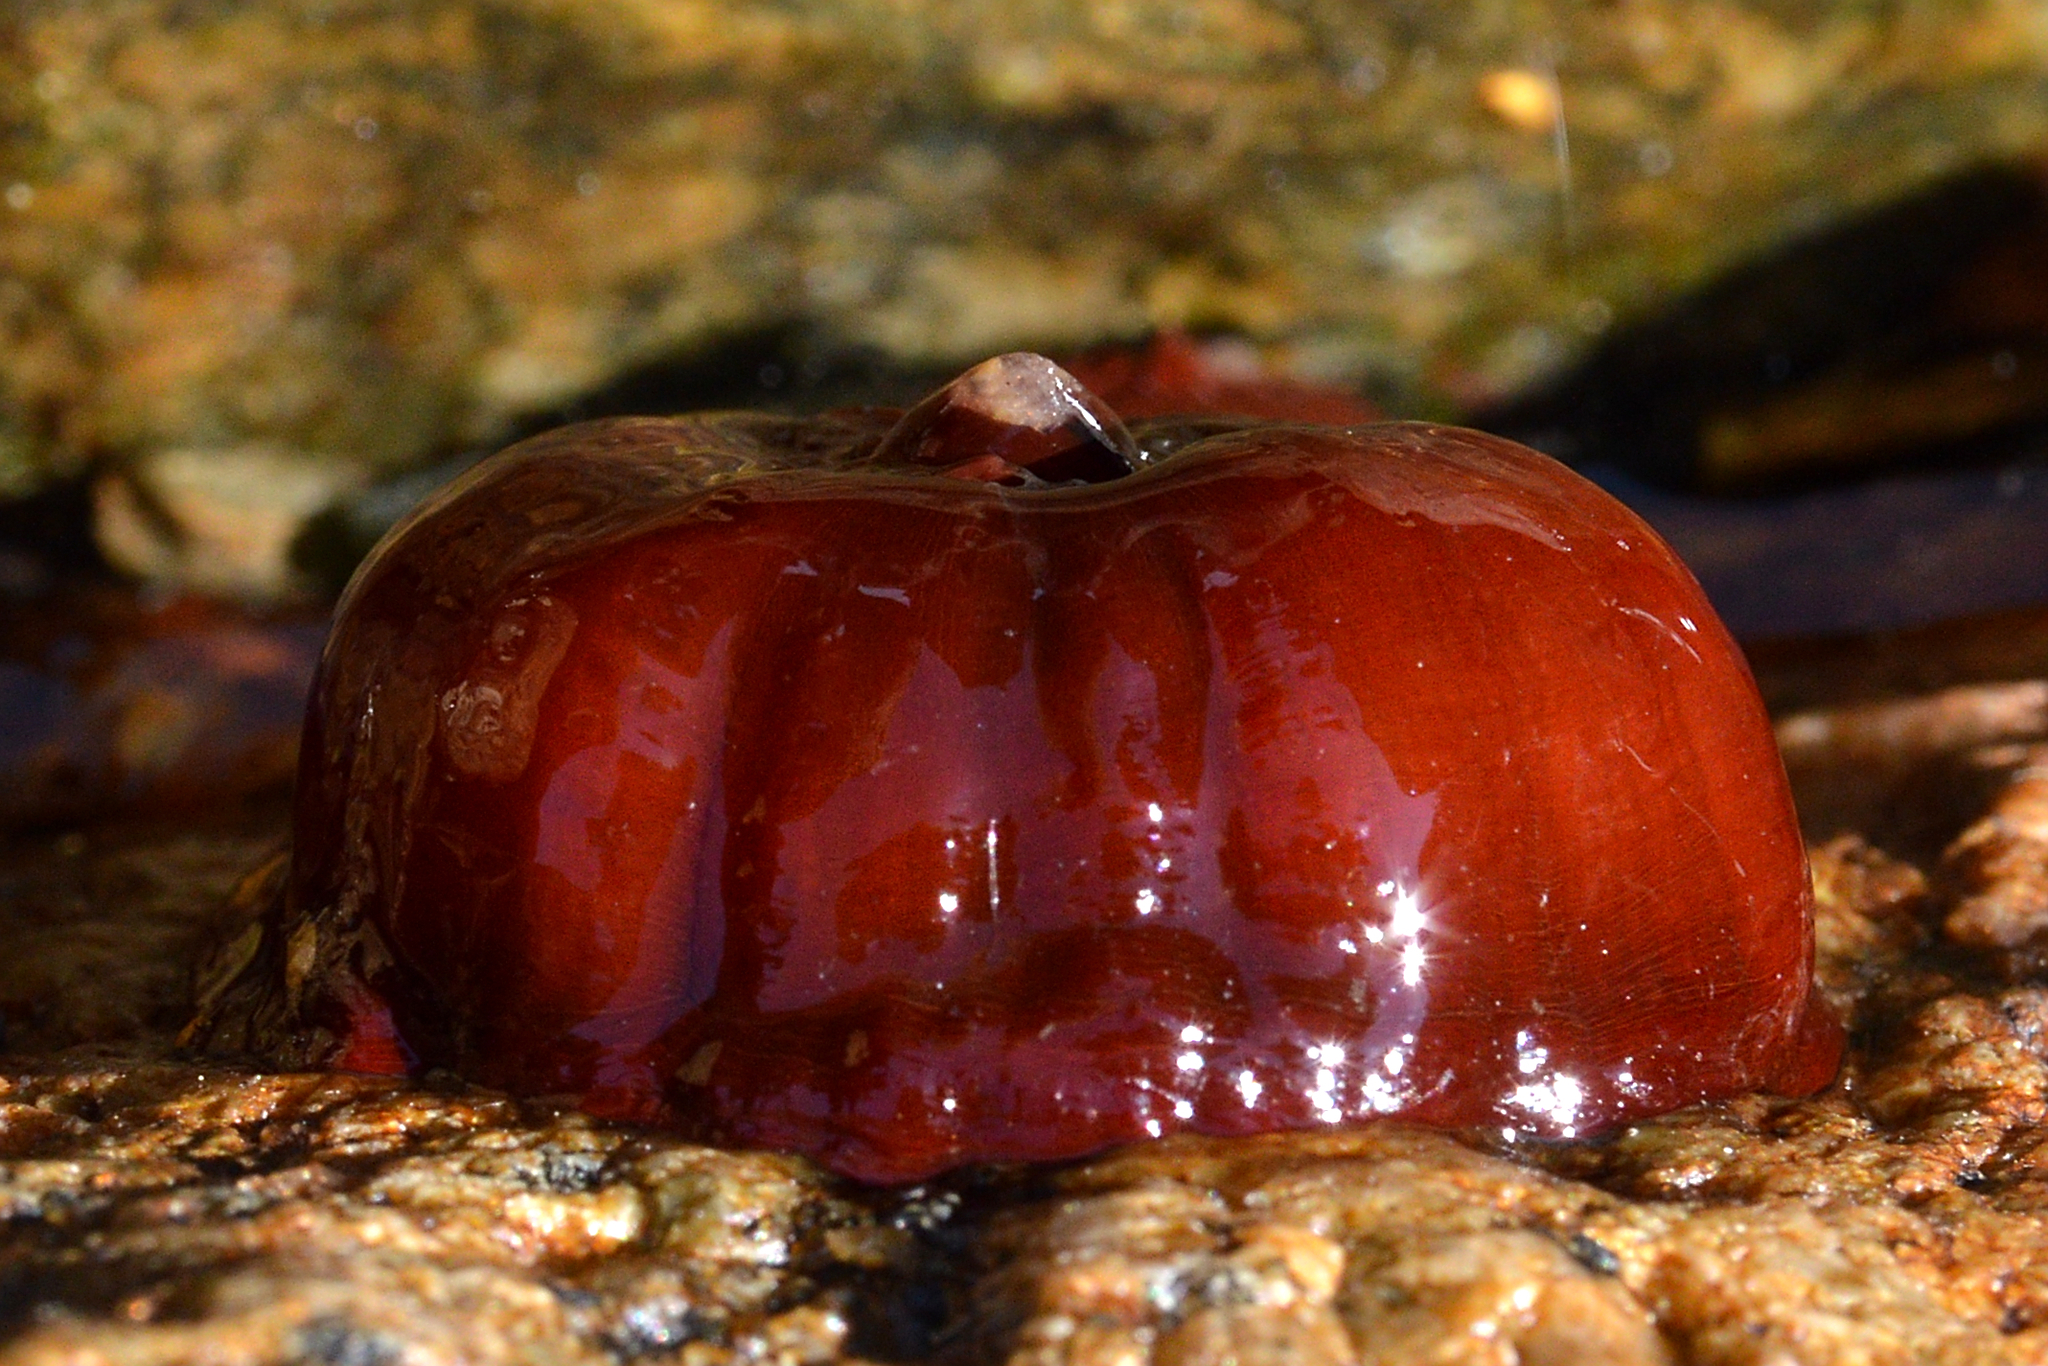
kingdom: Animalia
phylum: Cnidaria
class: Anthozoa
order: Actiniaria
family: Actiniidae
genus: Actinia
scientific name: Actinia equina
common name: Beadlet anemone
